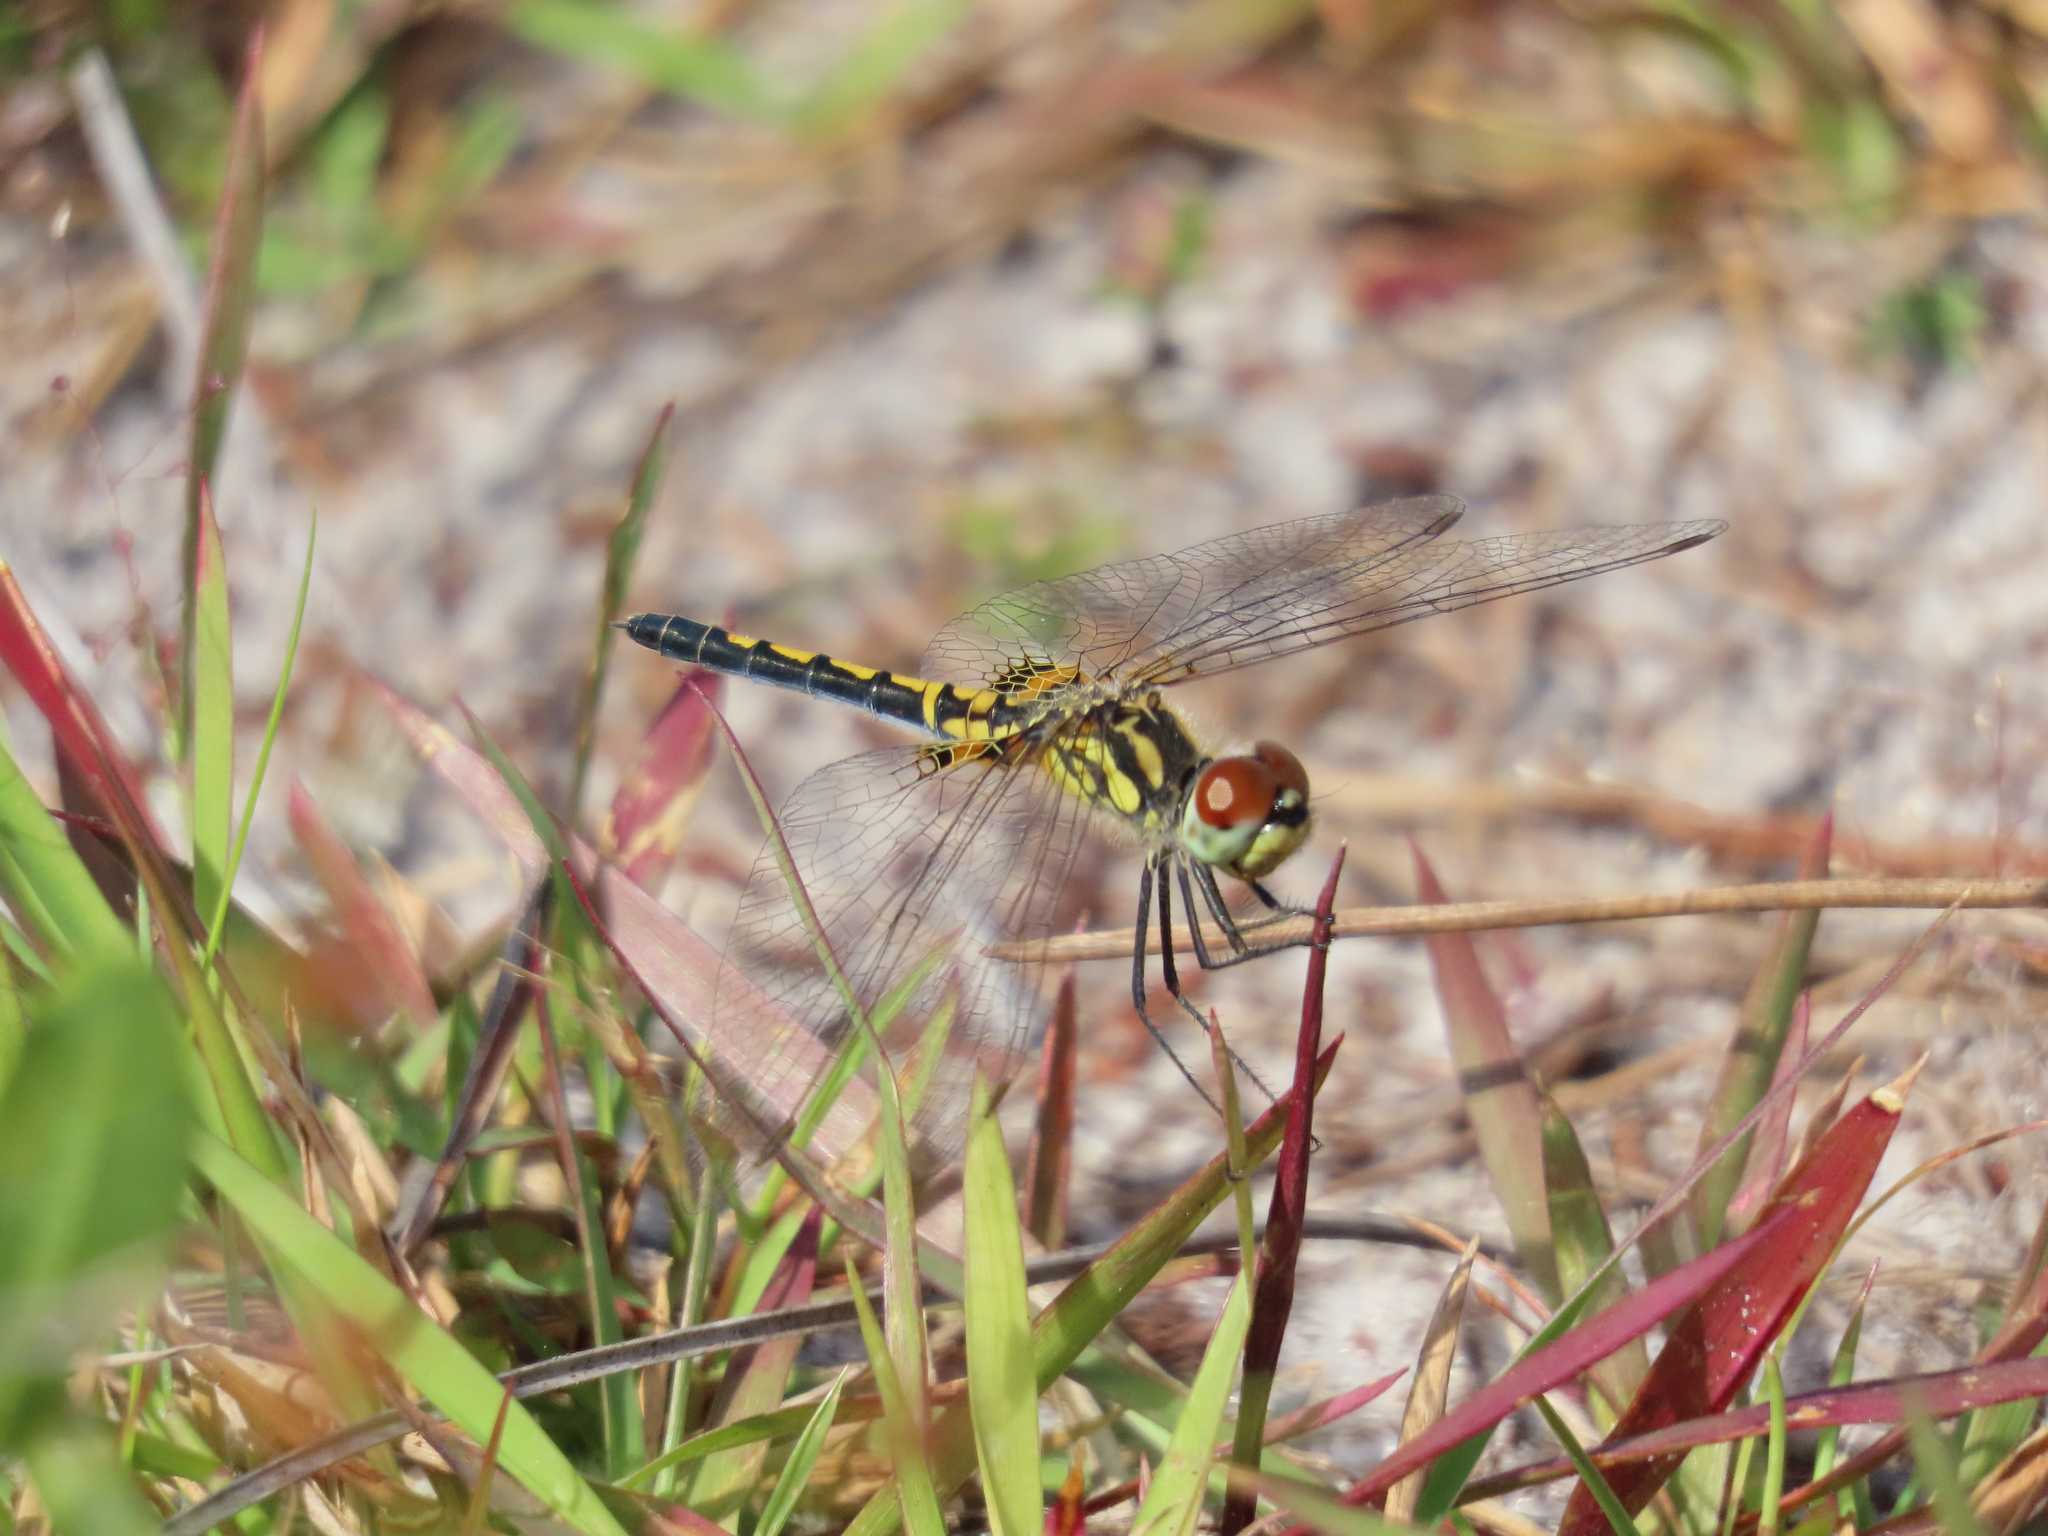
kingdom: Animalia
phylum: Arthropoda
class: Insecta
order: Odonata
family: Libellulidae
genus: Celithemis
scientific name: Celithemis ornata
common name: Ornate pennant
